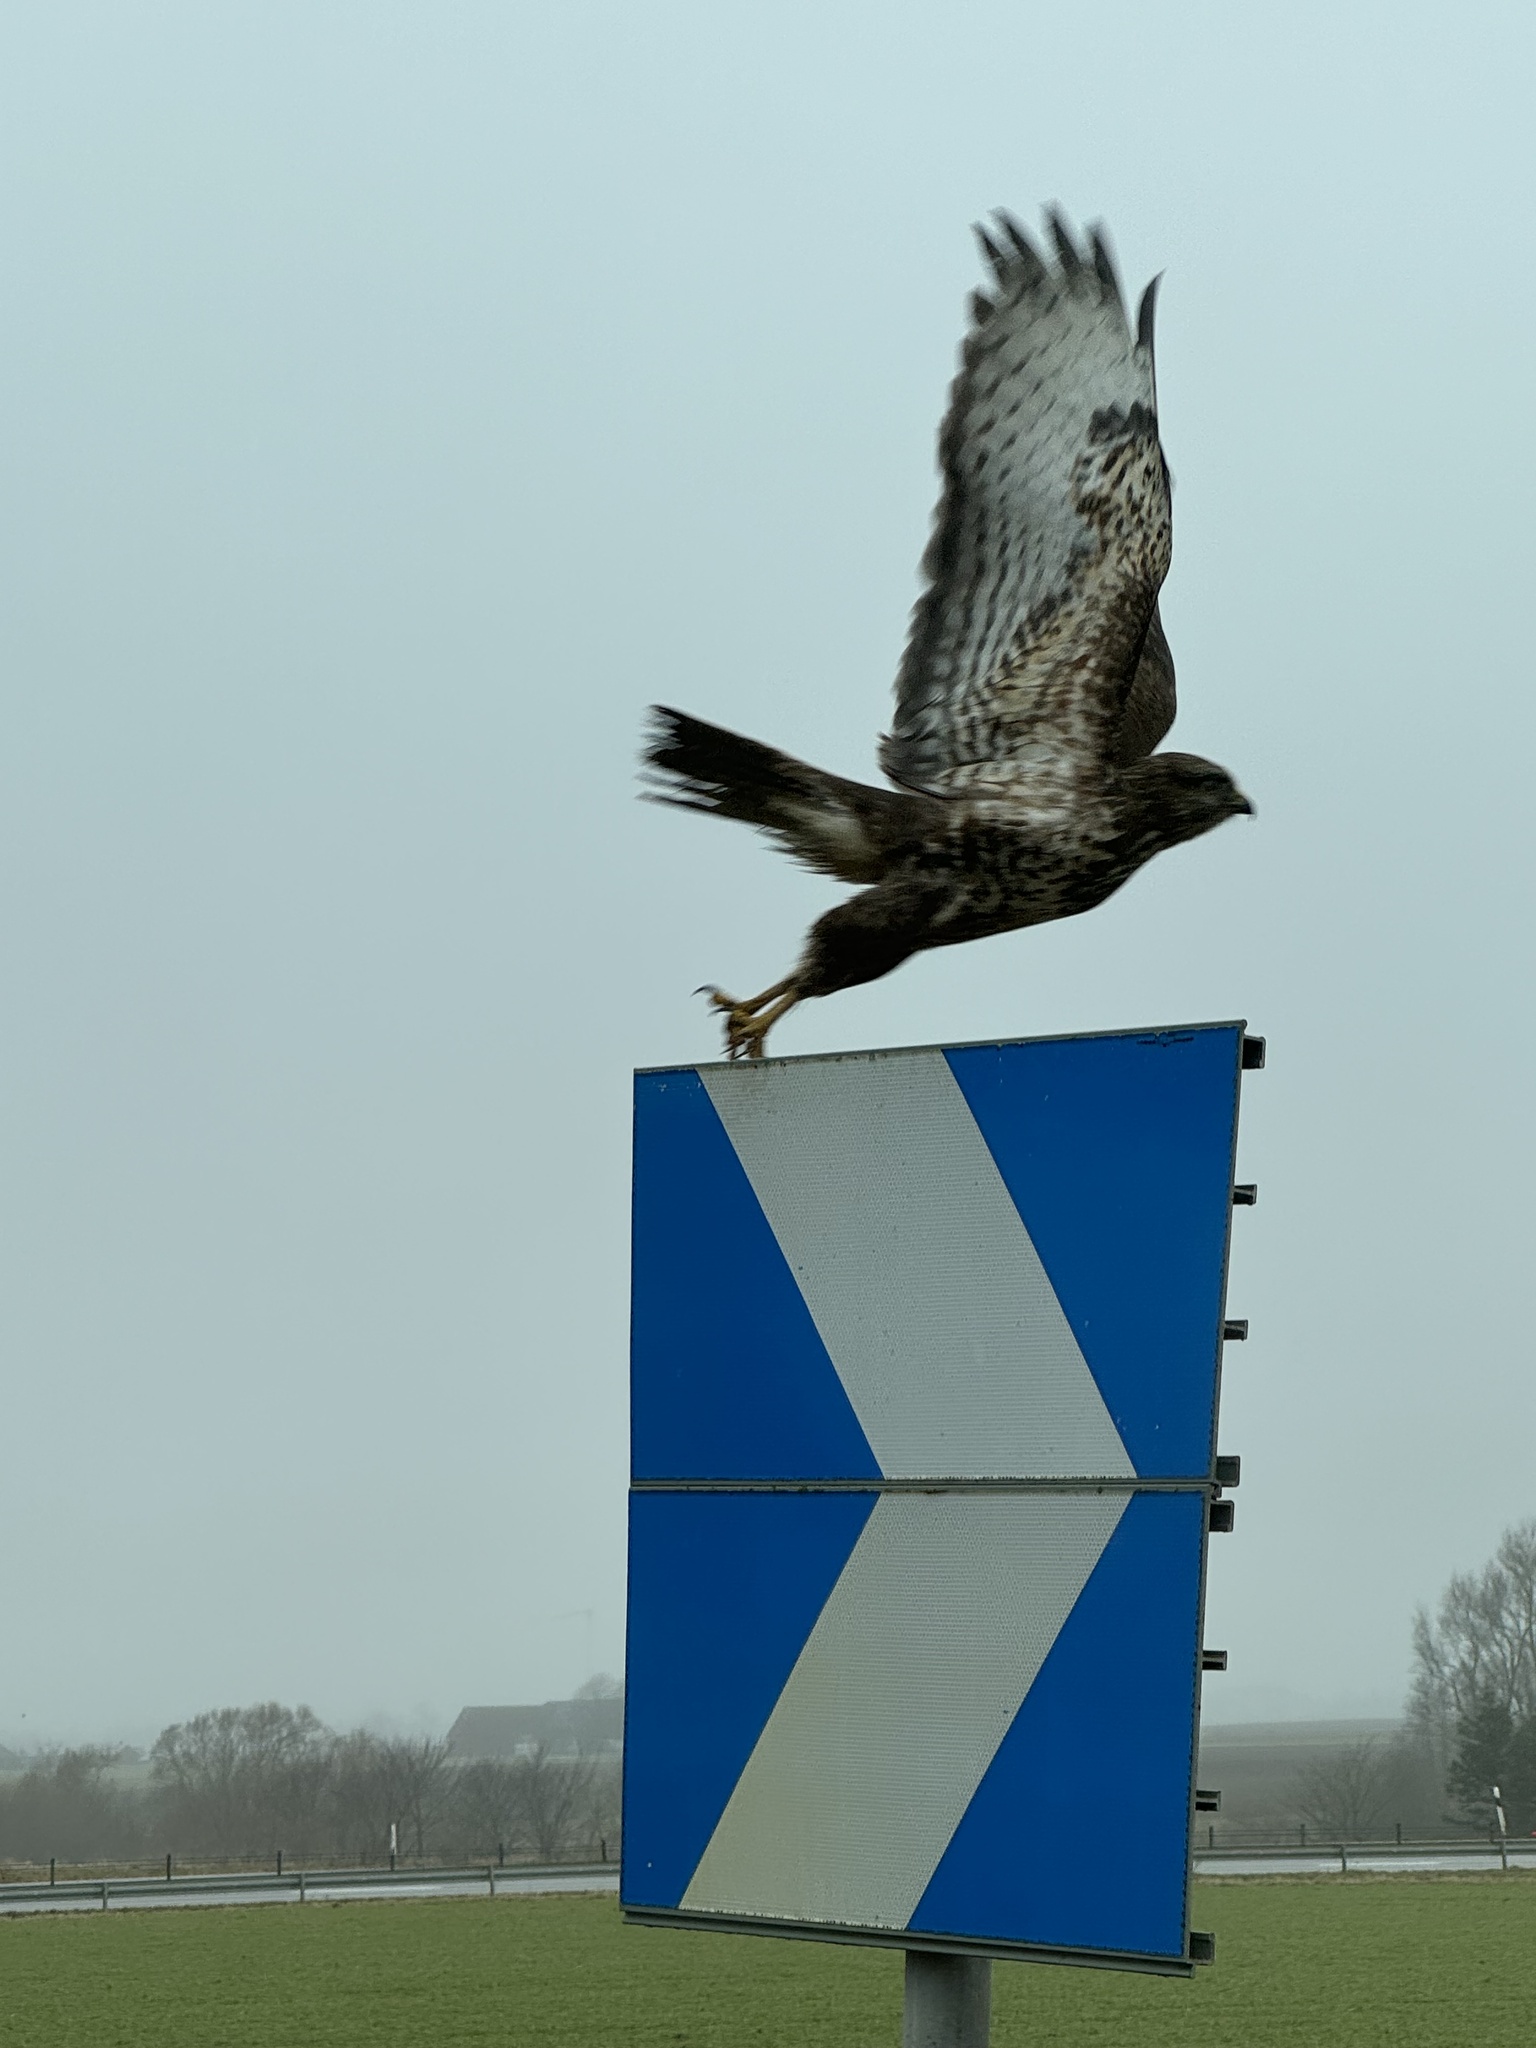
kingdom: Animalia
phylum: Chordata
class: Aves
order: Accipitriformes
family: Accipitridae
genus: Buteo
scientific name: Buteo buteo
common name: Common buzzard
